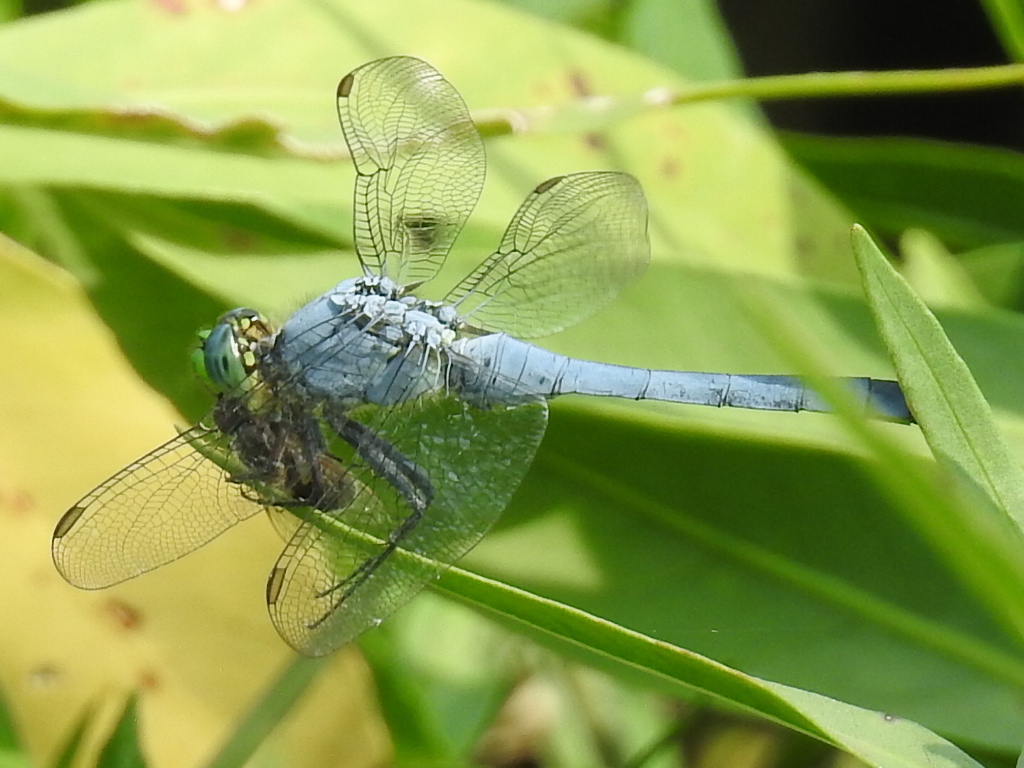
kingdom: Animalia
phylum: Arthropoda
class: Insecta
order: Odonata
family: Libellulidae
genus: Erythemis
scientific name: Erythemis simplicicollis
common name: Eastern pondhawk
